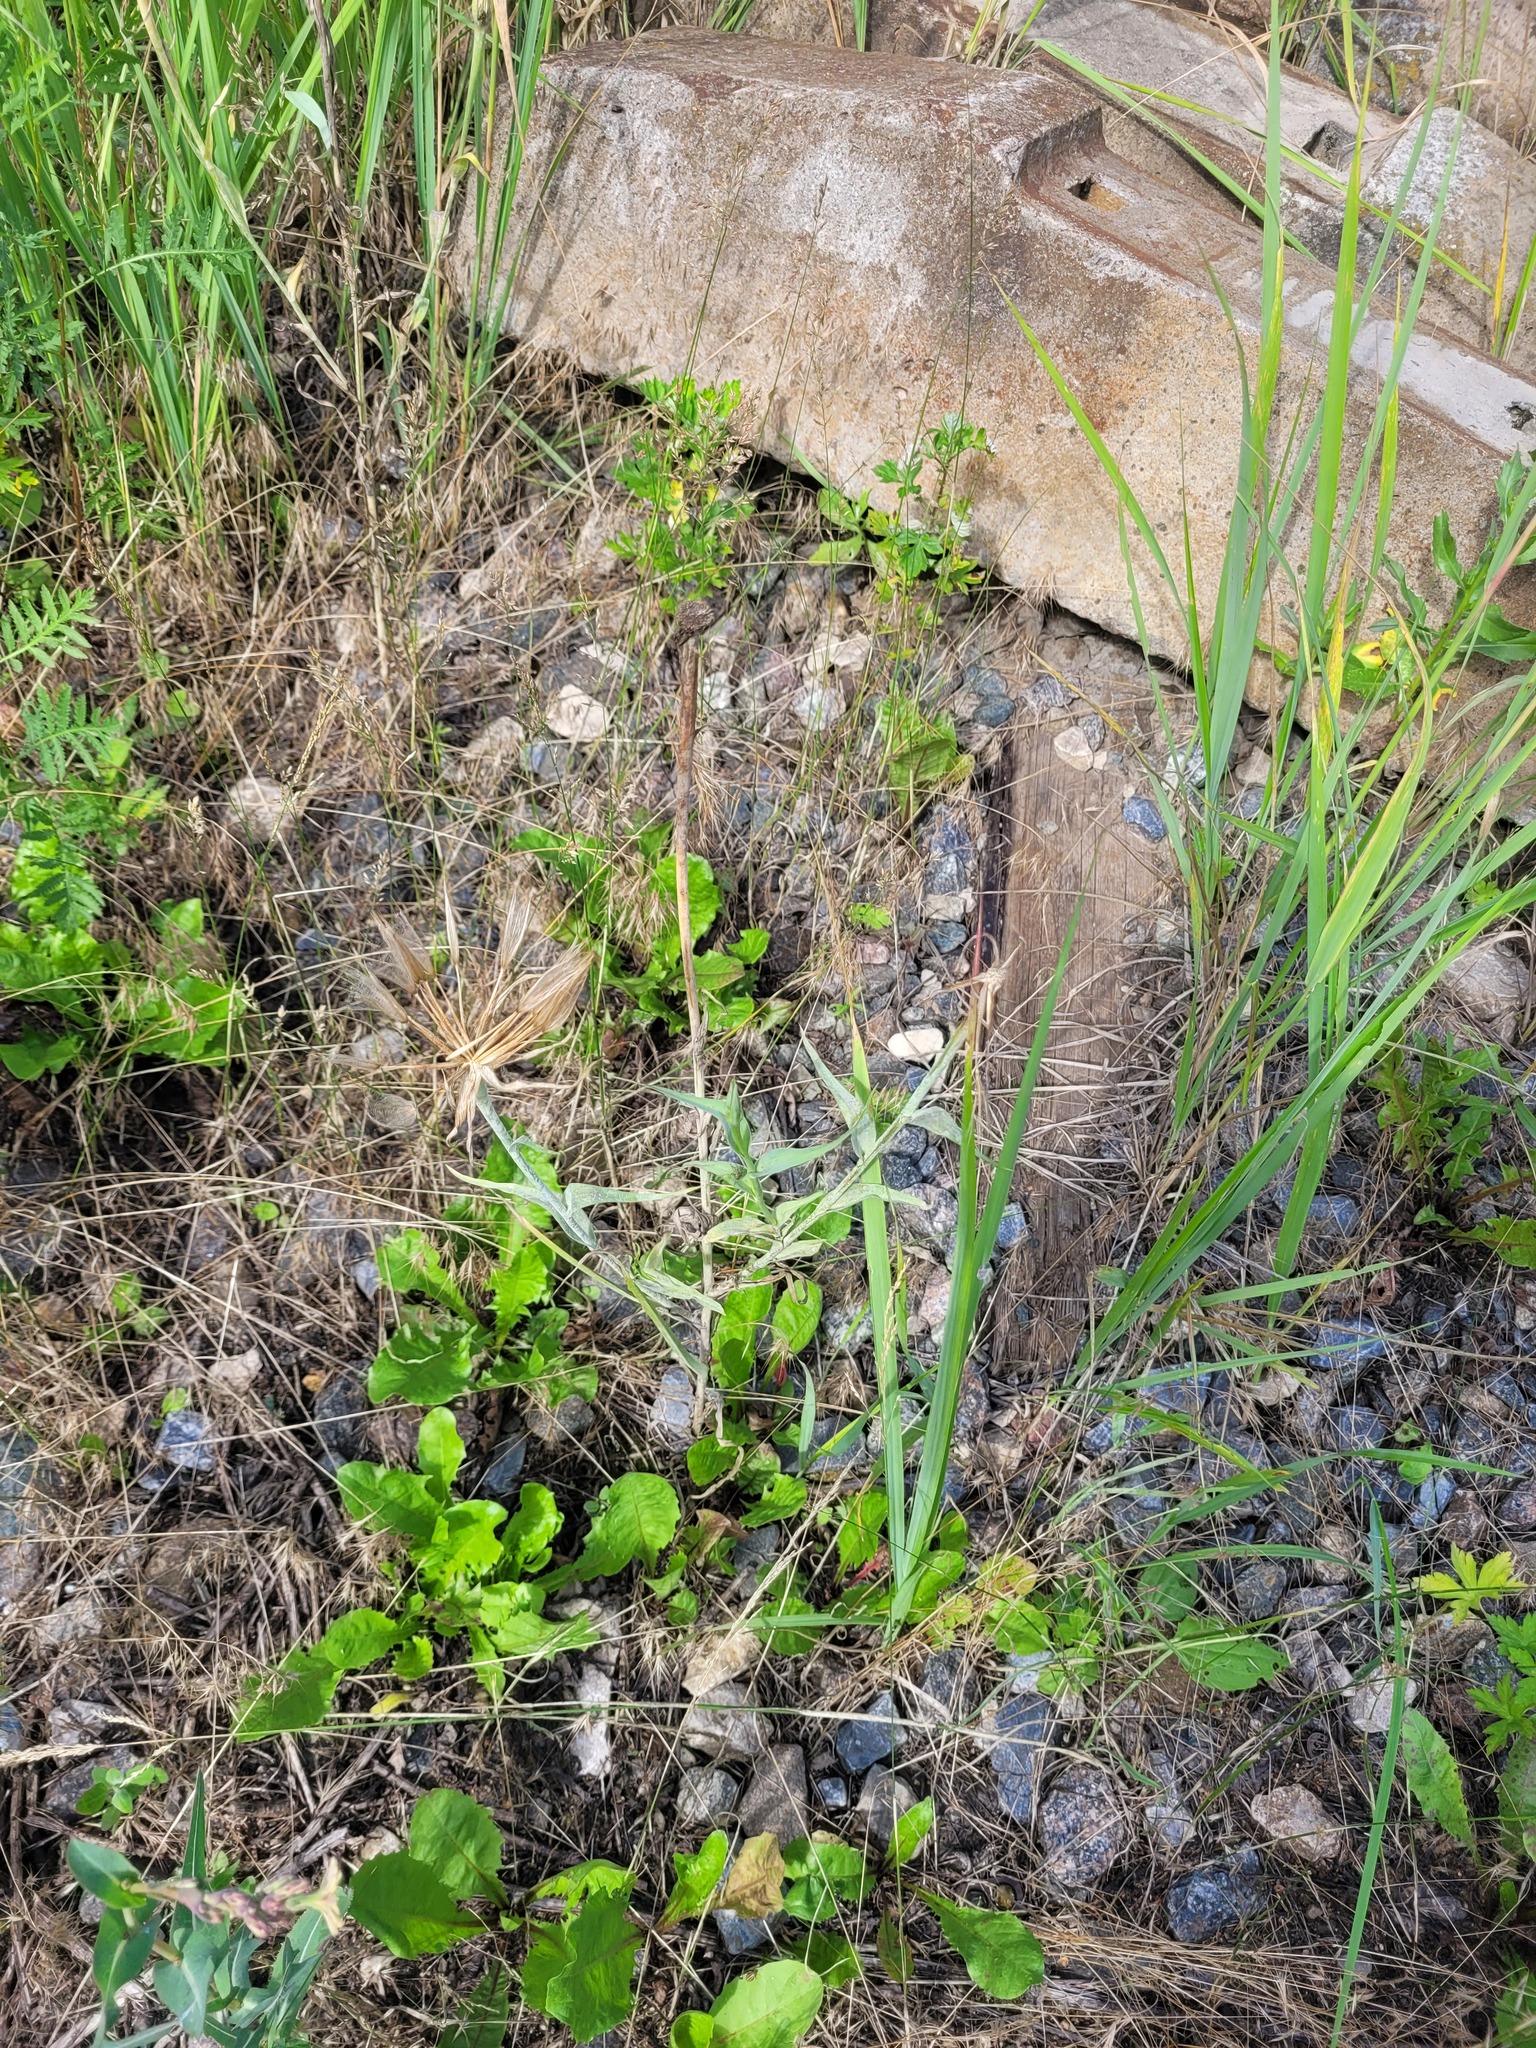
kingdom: Plantae
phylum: Tracheophyta
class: Magnoliopsida
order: Asterales
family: Asteraceae
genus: Tragopogon
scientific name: Tragopogon dubius
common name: Yellow salsify
